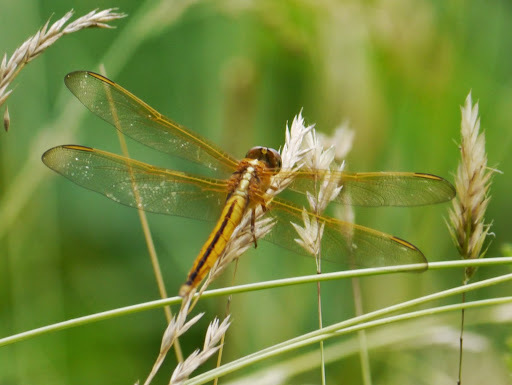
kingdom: Animalia
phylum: Arthropoda
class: Insecta
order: Odonata
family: Libellulidae
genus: Libellula
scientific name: Libellula needhami
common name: Needham's skimmer
